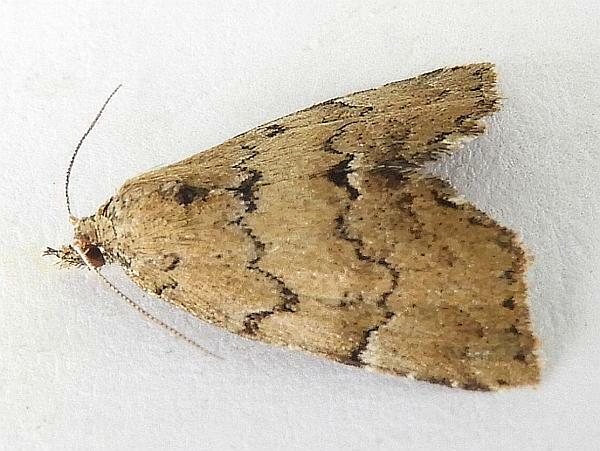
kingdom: Animalia
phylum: Arthropoda
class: Insecta
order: Lepidoptera
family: Erebidae
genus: Cutina
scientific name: Cutina aluticolor
